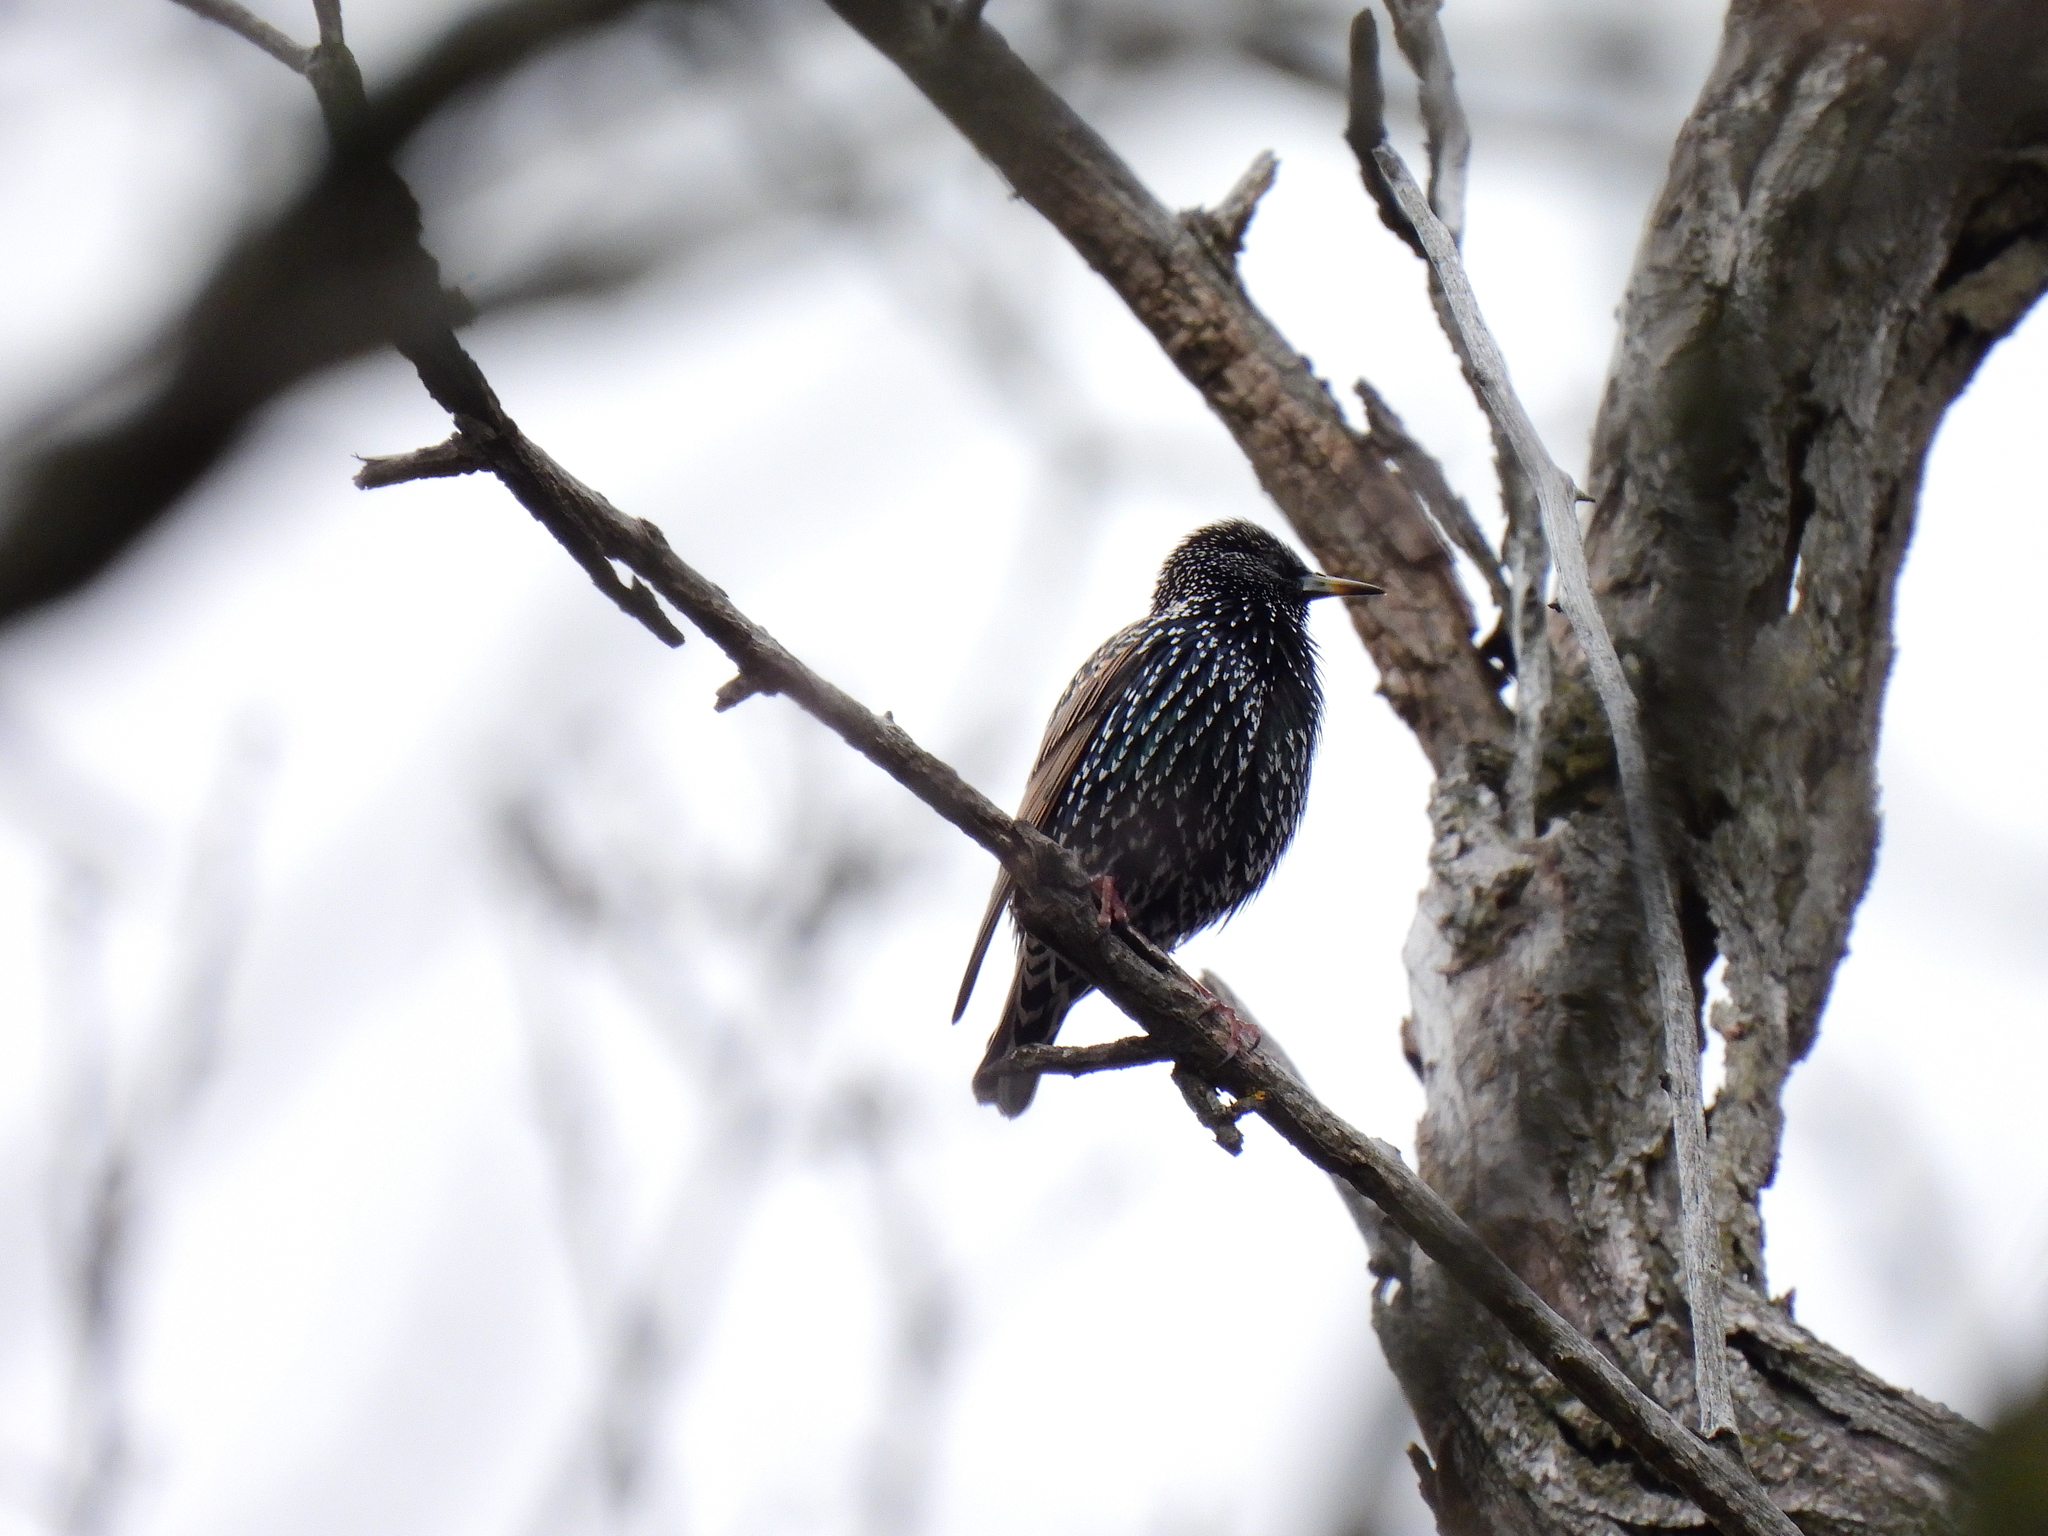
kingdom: Animalia
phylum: Chordata
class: Aves
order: Passeriformes
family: Sturnidae
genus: Sturnus
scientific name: Sturnus vulgaris
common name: Common starling
